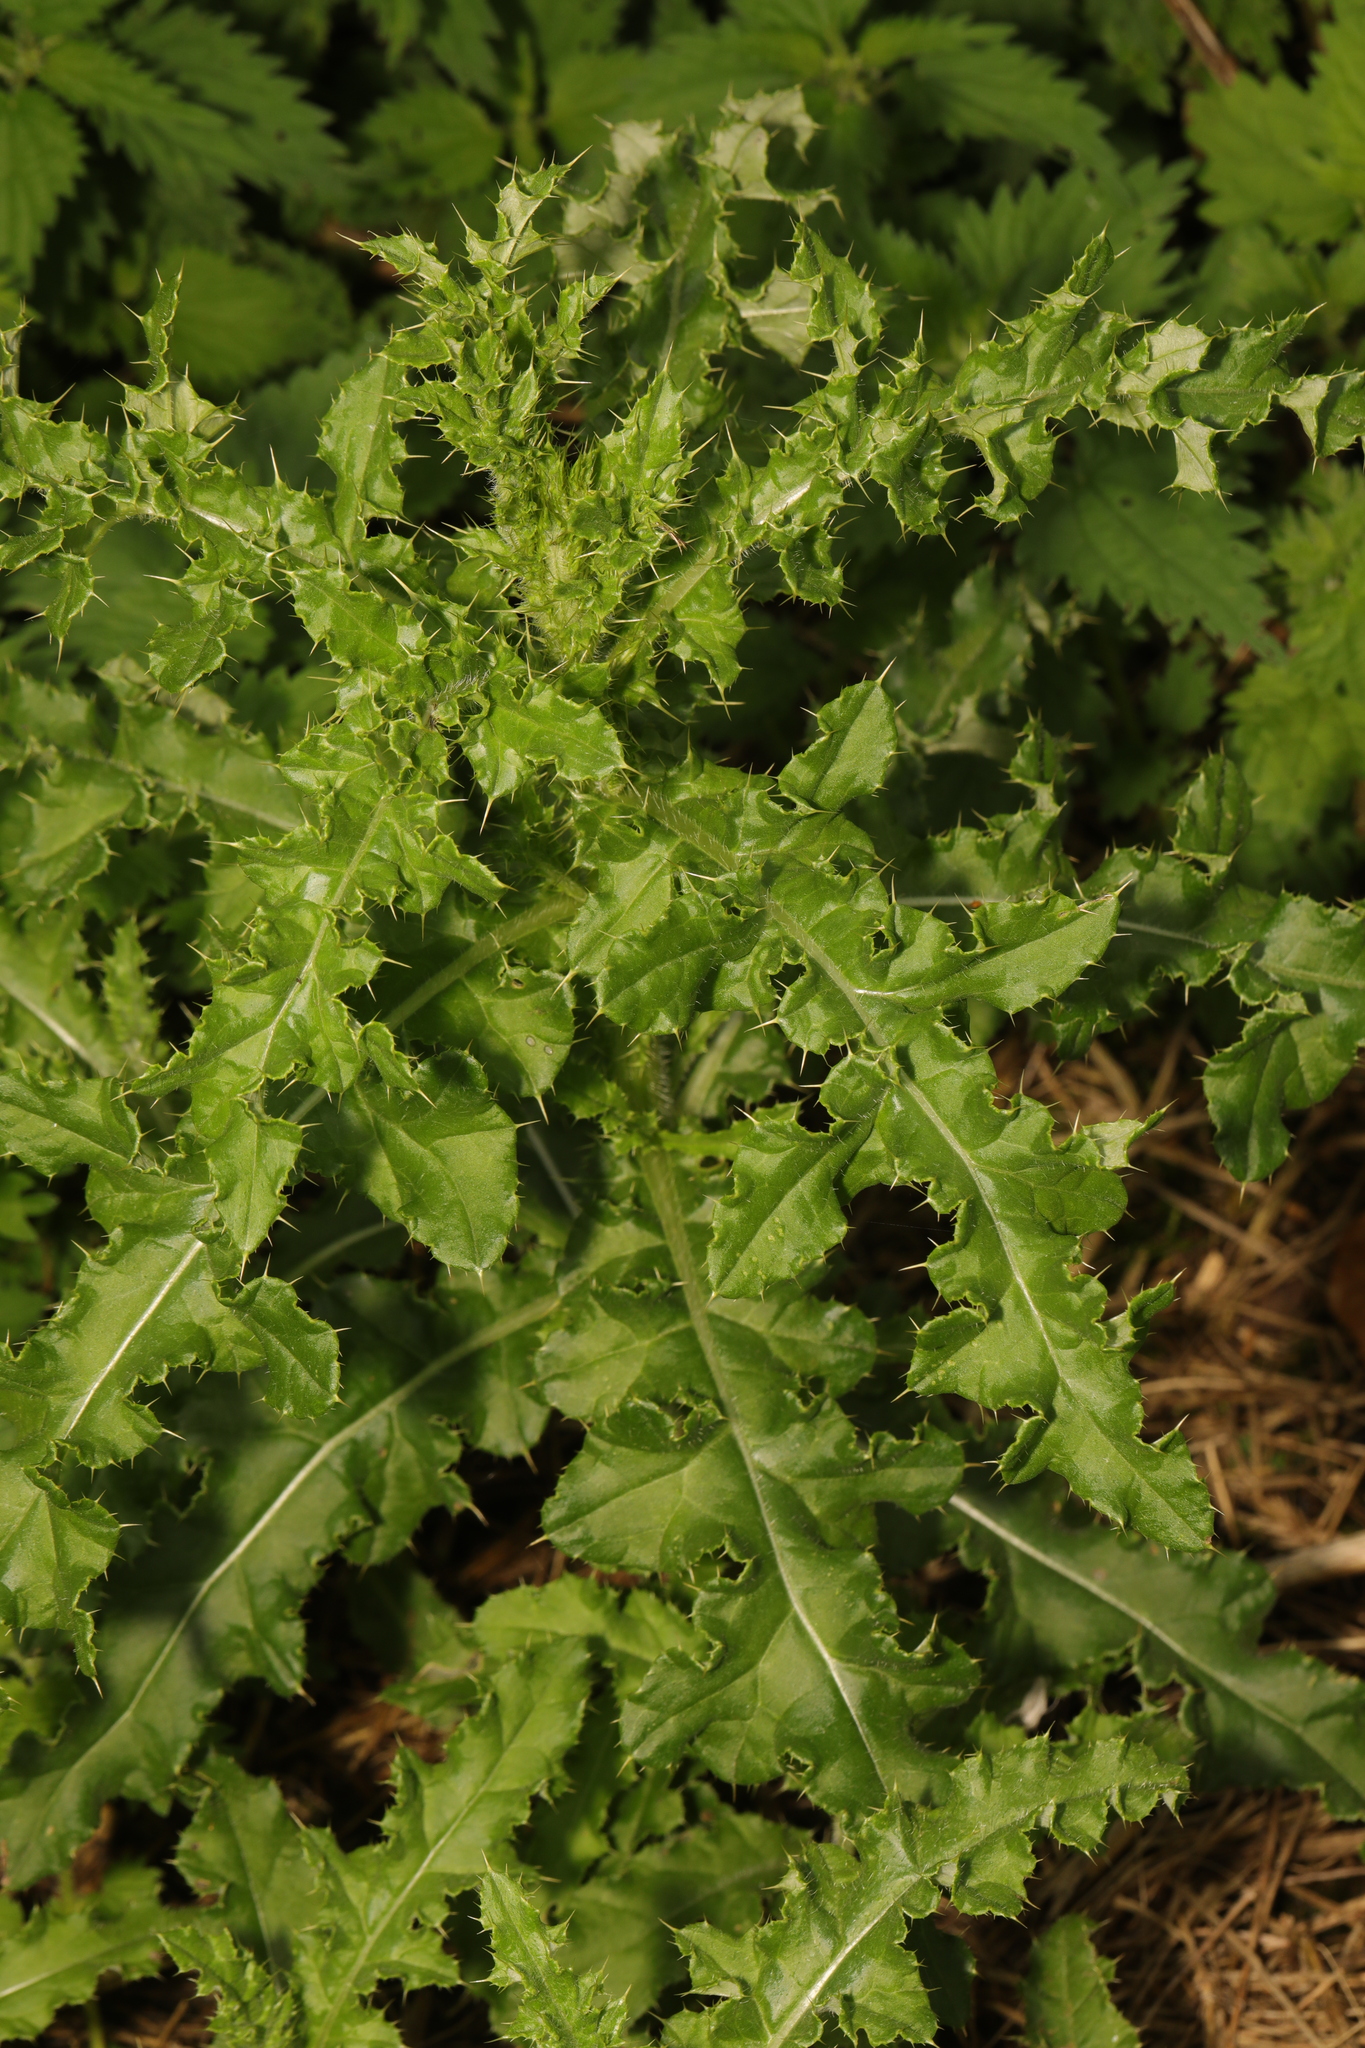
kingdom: Plantae
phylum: Tracheophyta
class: Magnoliopsida
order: Asterales
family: Asteraceae
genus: Cirsium
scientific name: Cirsium arvense
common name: Creeping thistle
